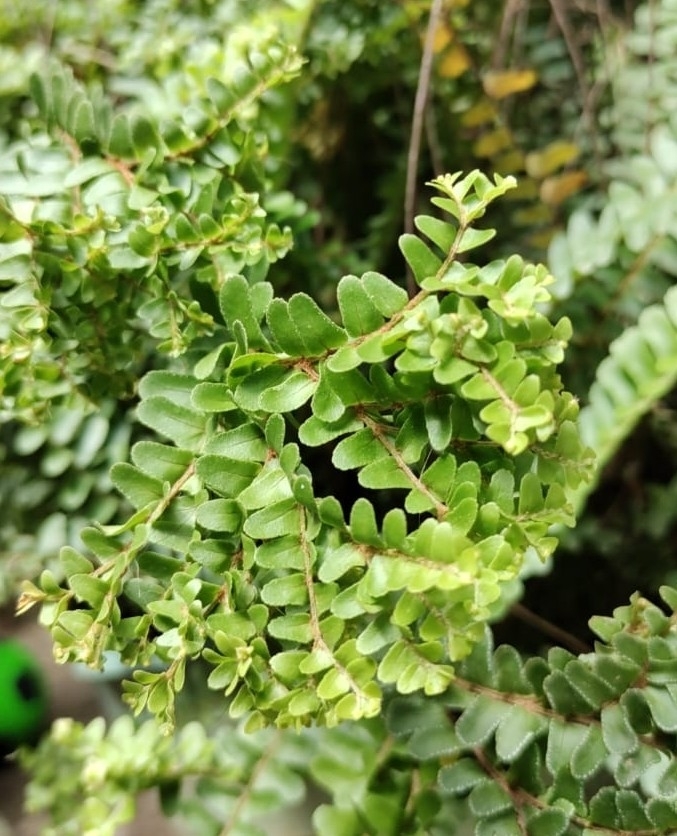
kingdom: Plantae
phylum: Tracheophyta
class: Polypodiopsida
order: Polypodiales
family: Pteridaceae
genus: Astrolepis
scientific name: Astrolepis sinuata
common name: Wavy scaly cloakfern
